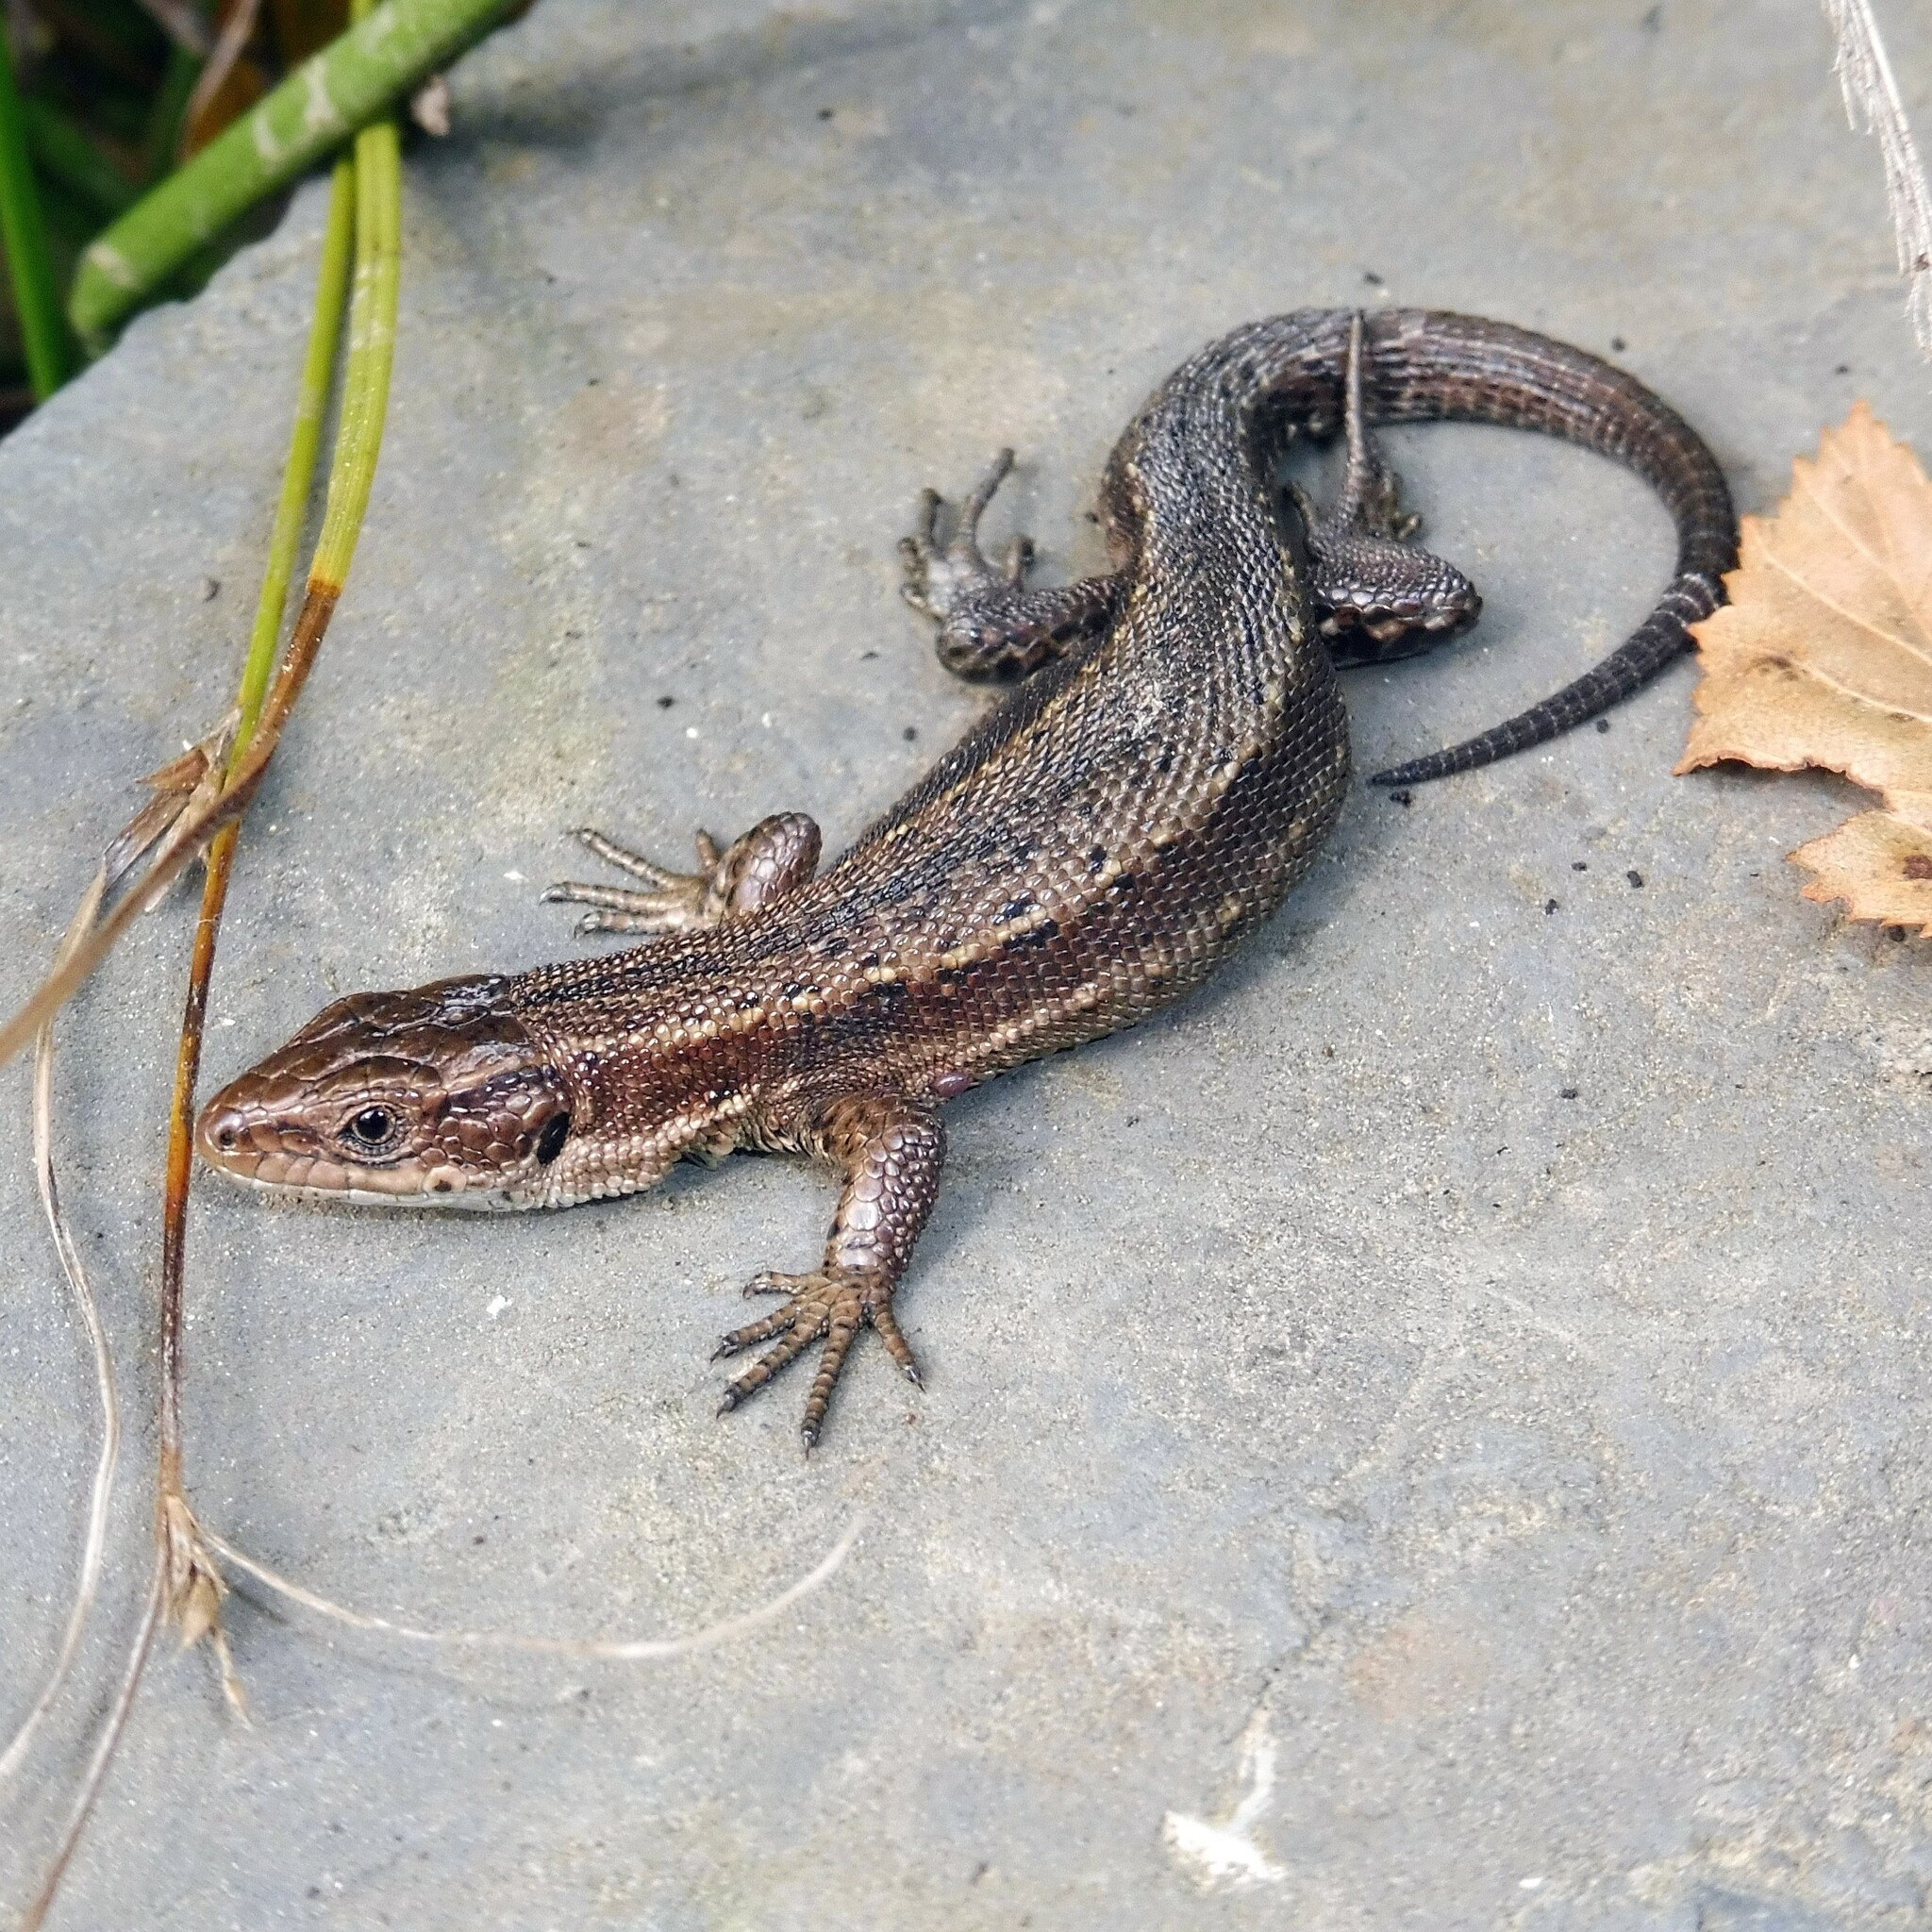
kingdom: Animalia
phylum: Chordata
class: Squamata
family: Lacertidae
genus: Zootoca
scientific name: Zootoca vivipara
